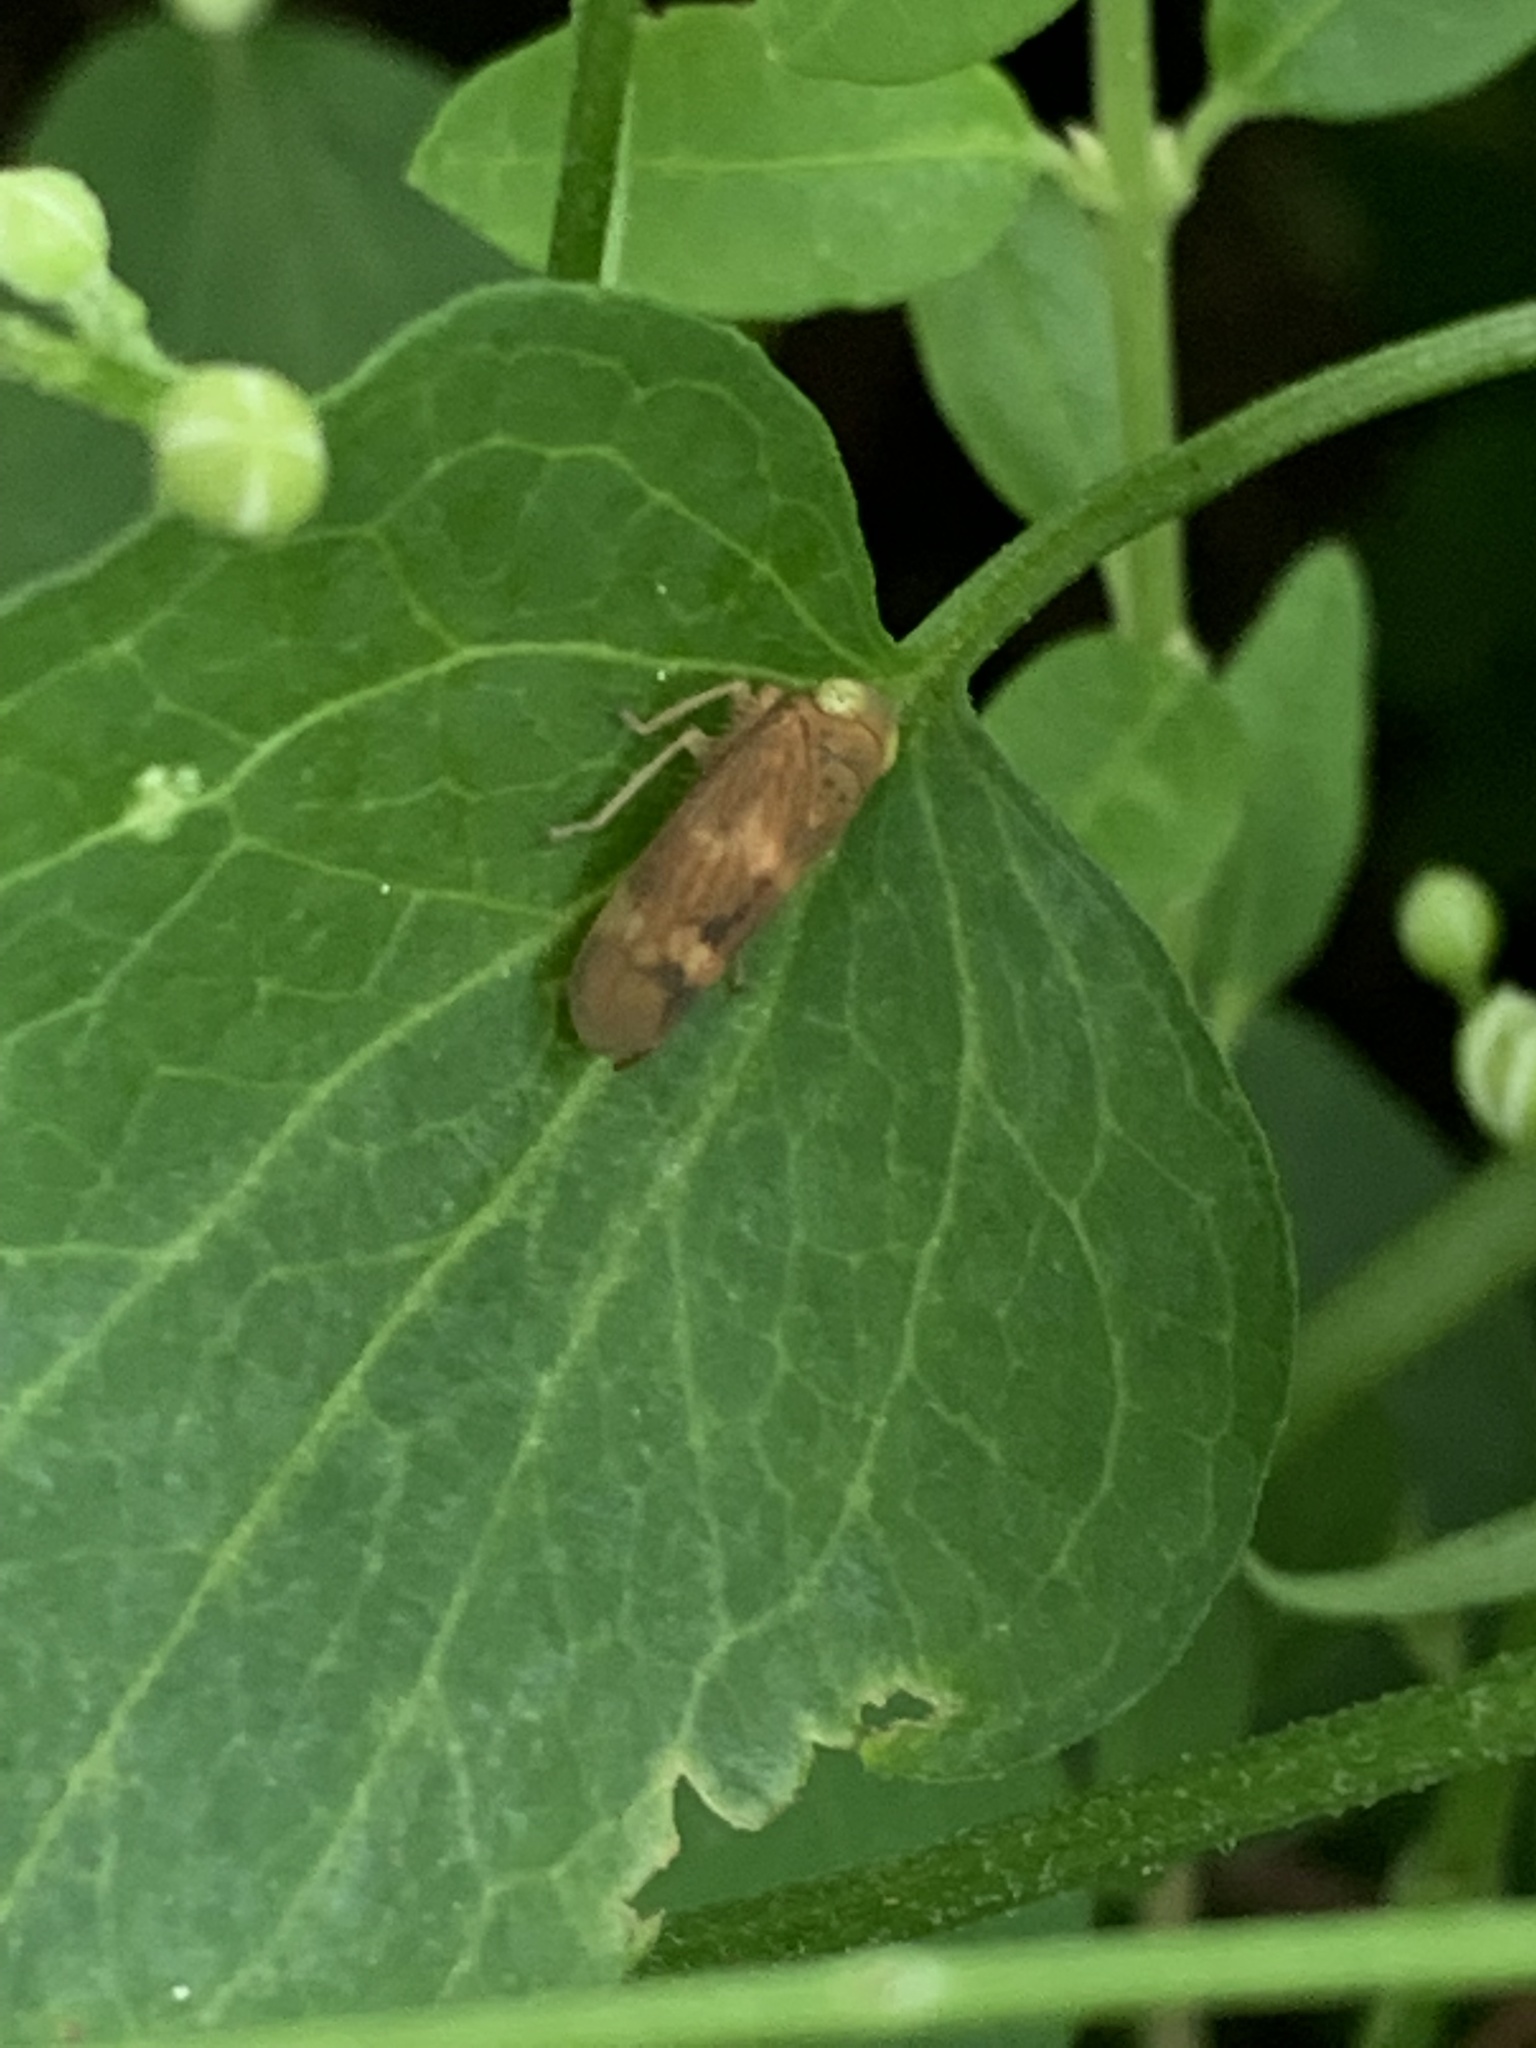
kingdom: Animalia
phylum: Arthropoda
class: Insecta
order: Hemiptera
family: Cicadellidae
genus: Jikradia
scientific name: Jikradia olitoria
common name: Coppery leafhopper
